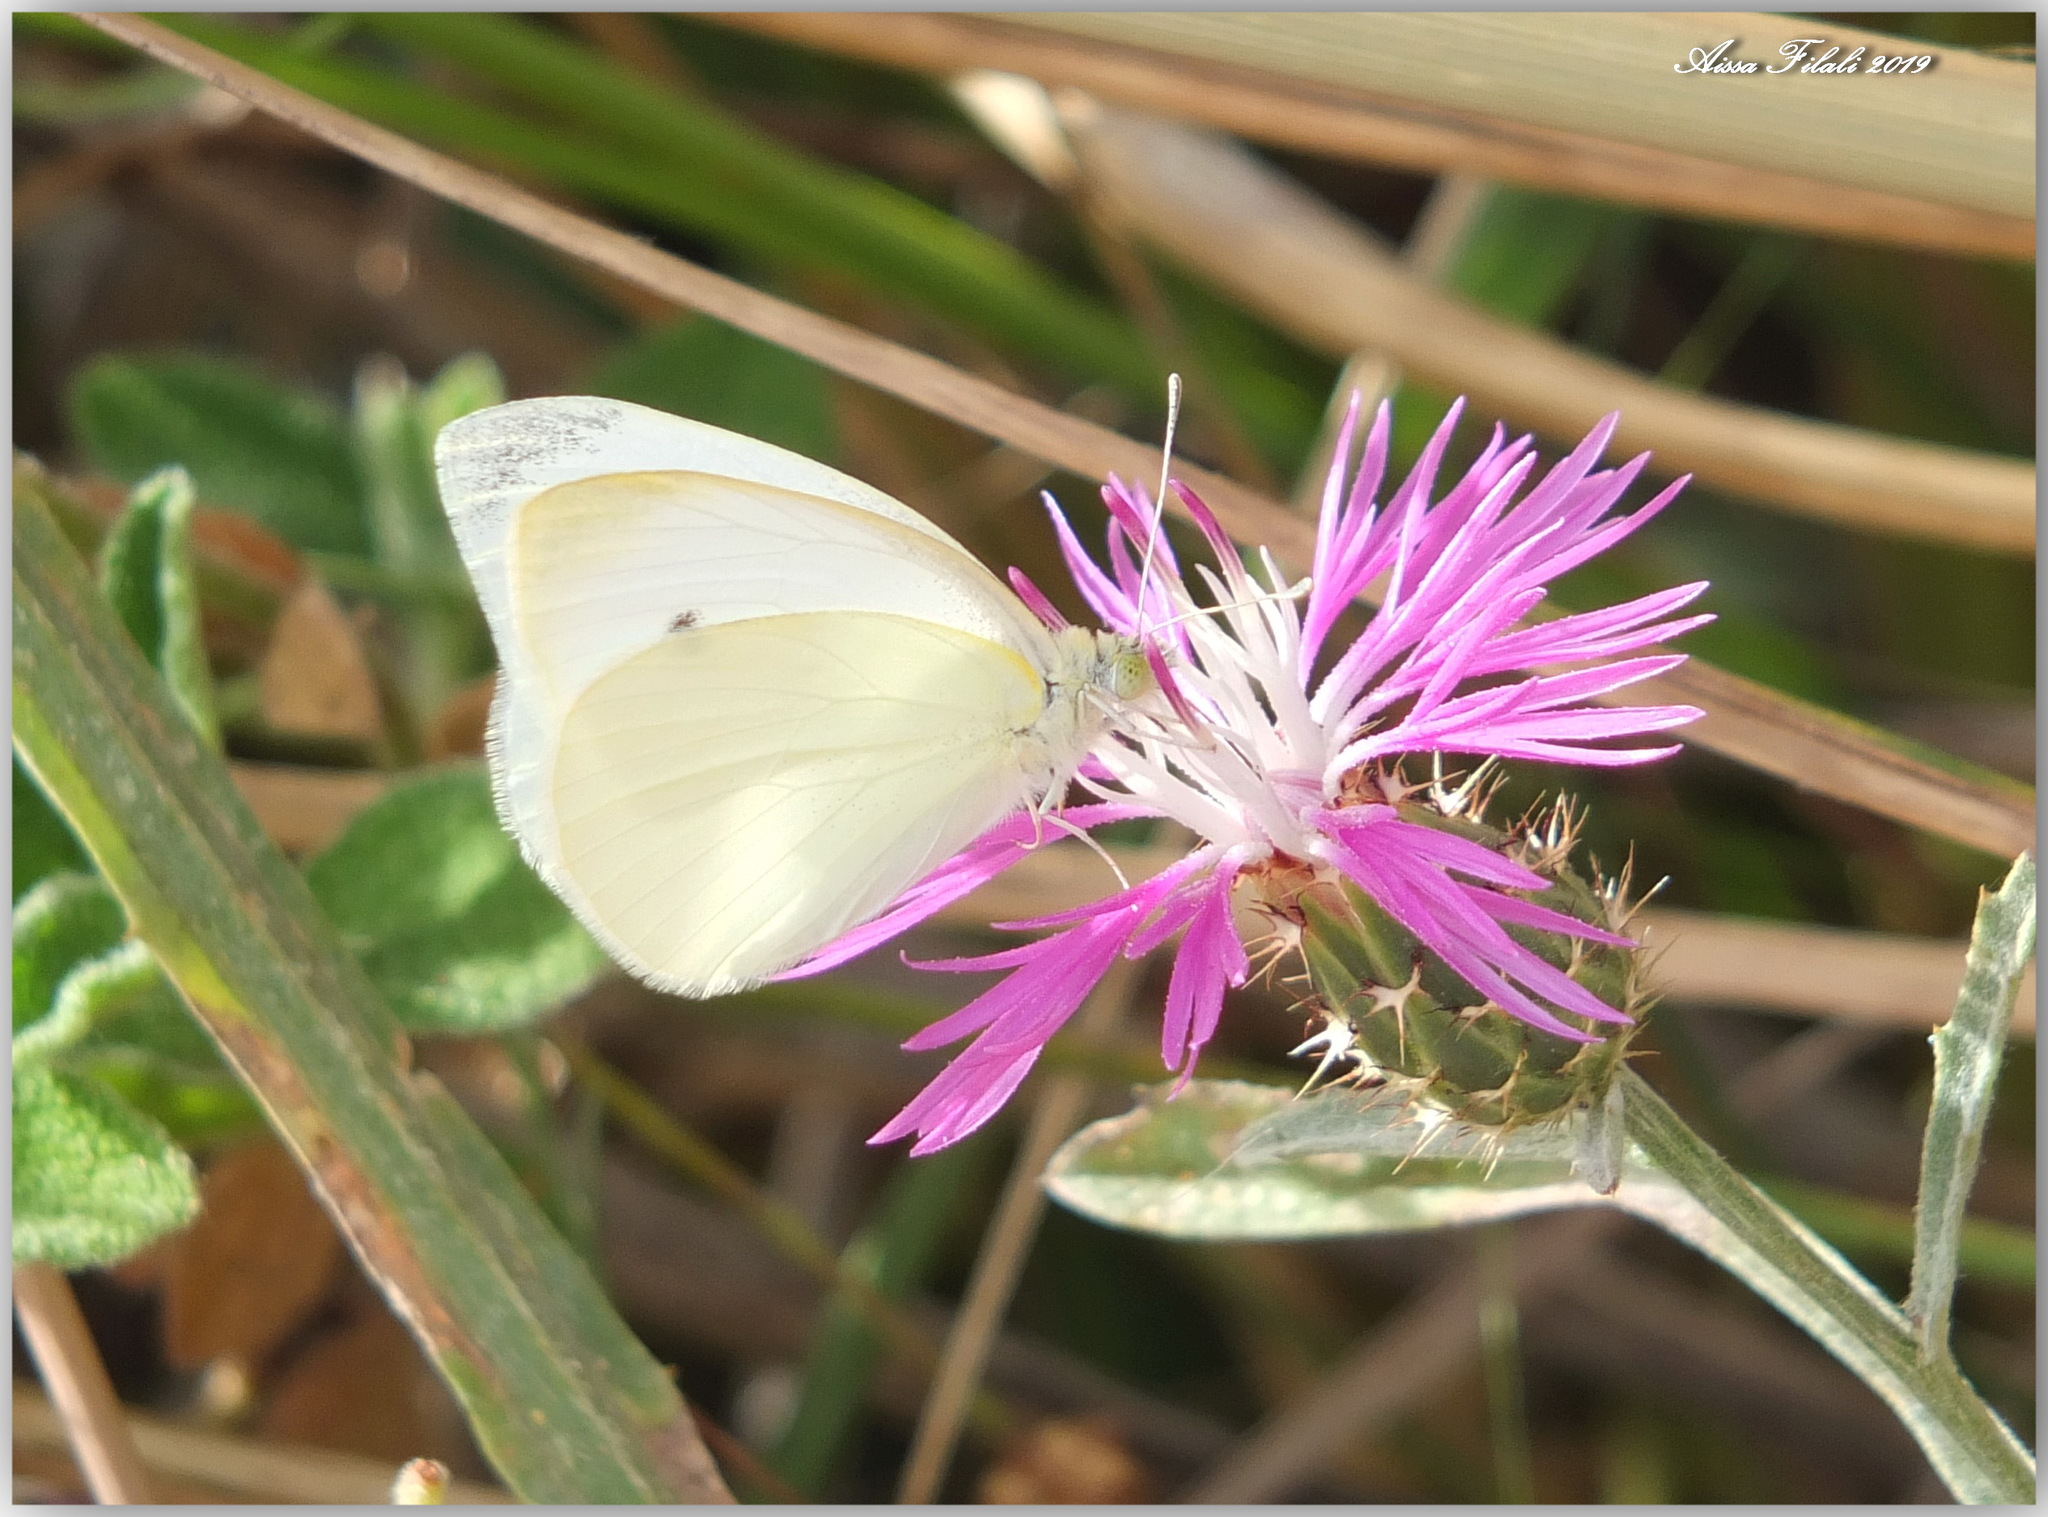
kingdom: Animalia
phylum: Arthropoda
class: Insecta
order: Lepidoptera
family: Pieridae
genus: Pieris
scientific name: Pieris rapae
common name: Small white
